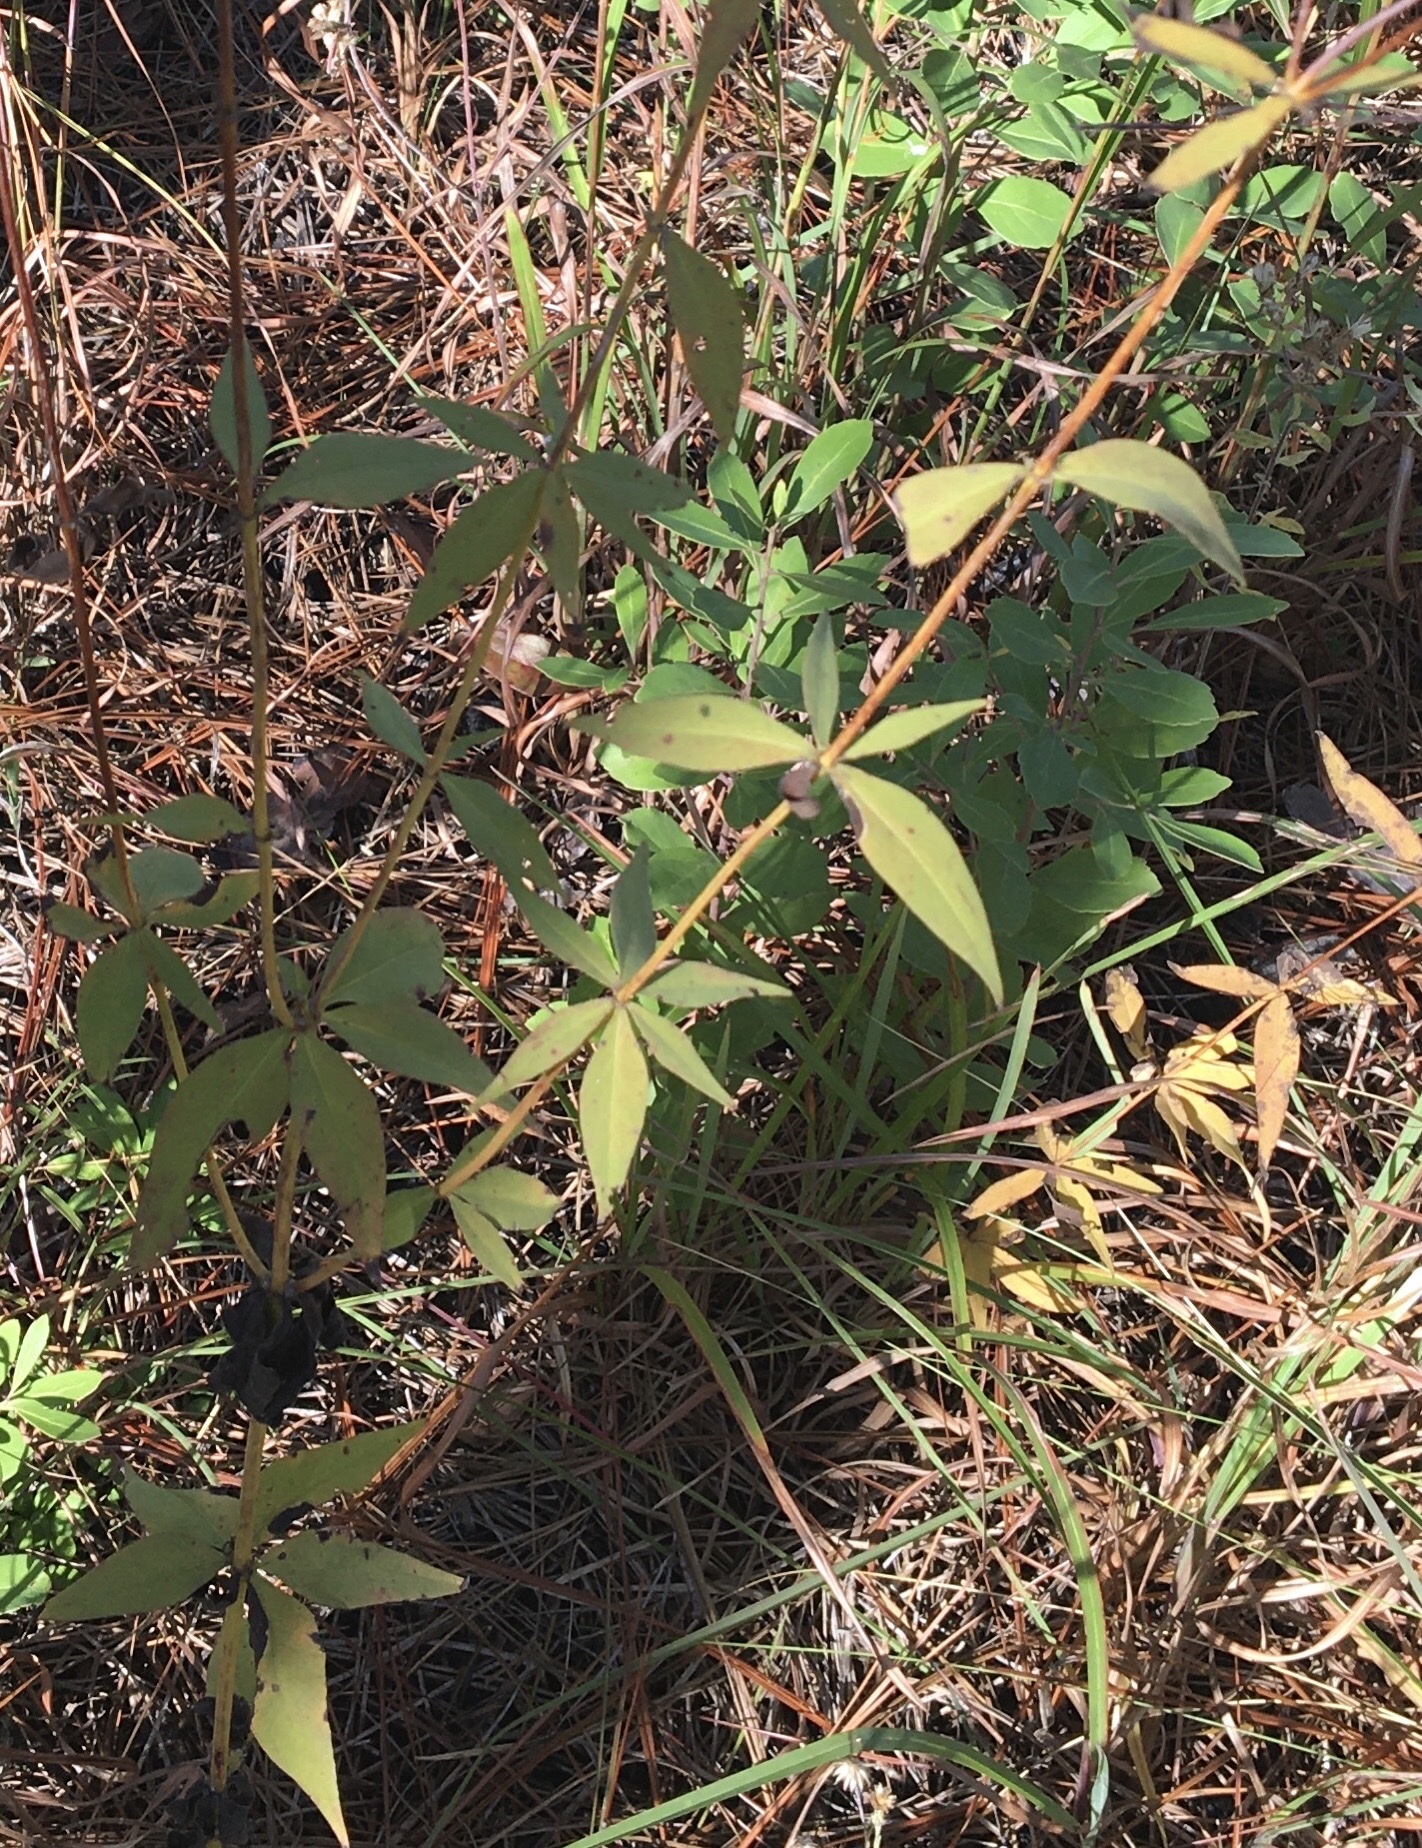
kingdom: Plantae
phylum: Tracheophyta
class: Magnoliopsida
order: Asterales
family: Asteraceae
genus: Coreopsis
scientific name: Coreopsis tripteris
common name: Tall coreopsis
